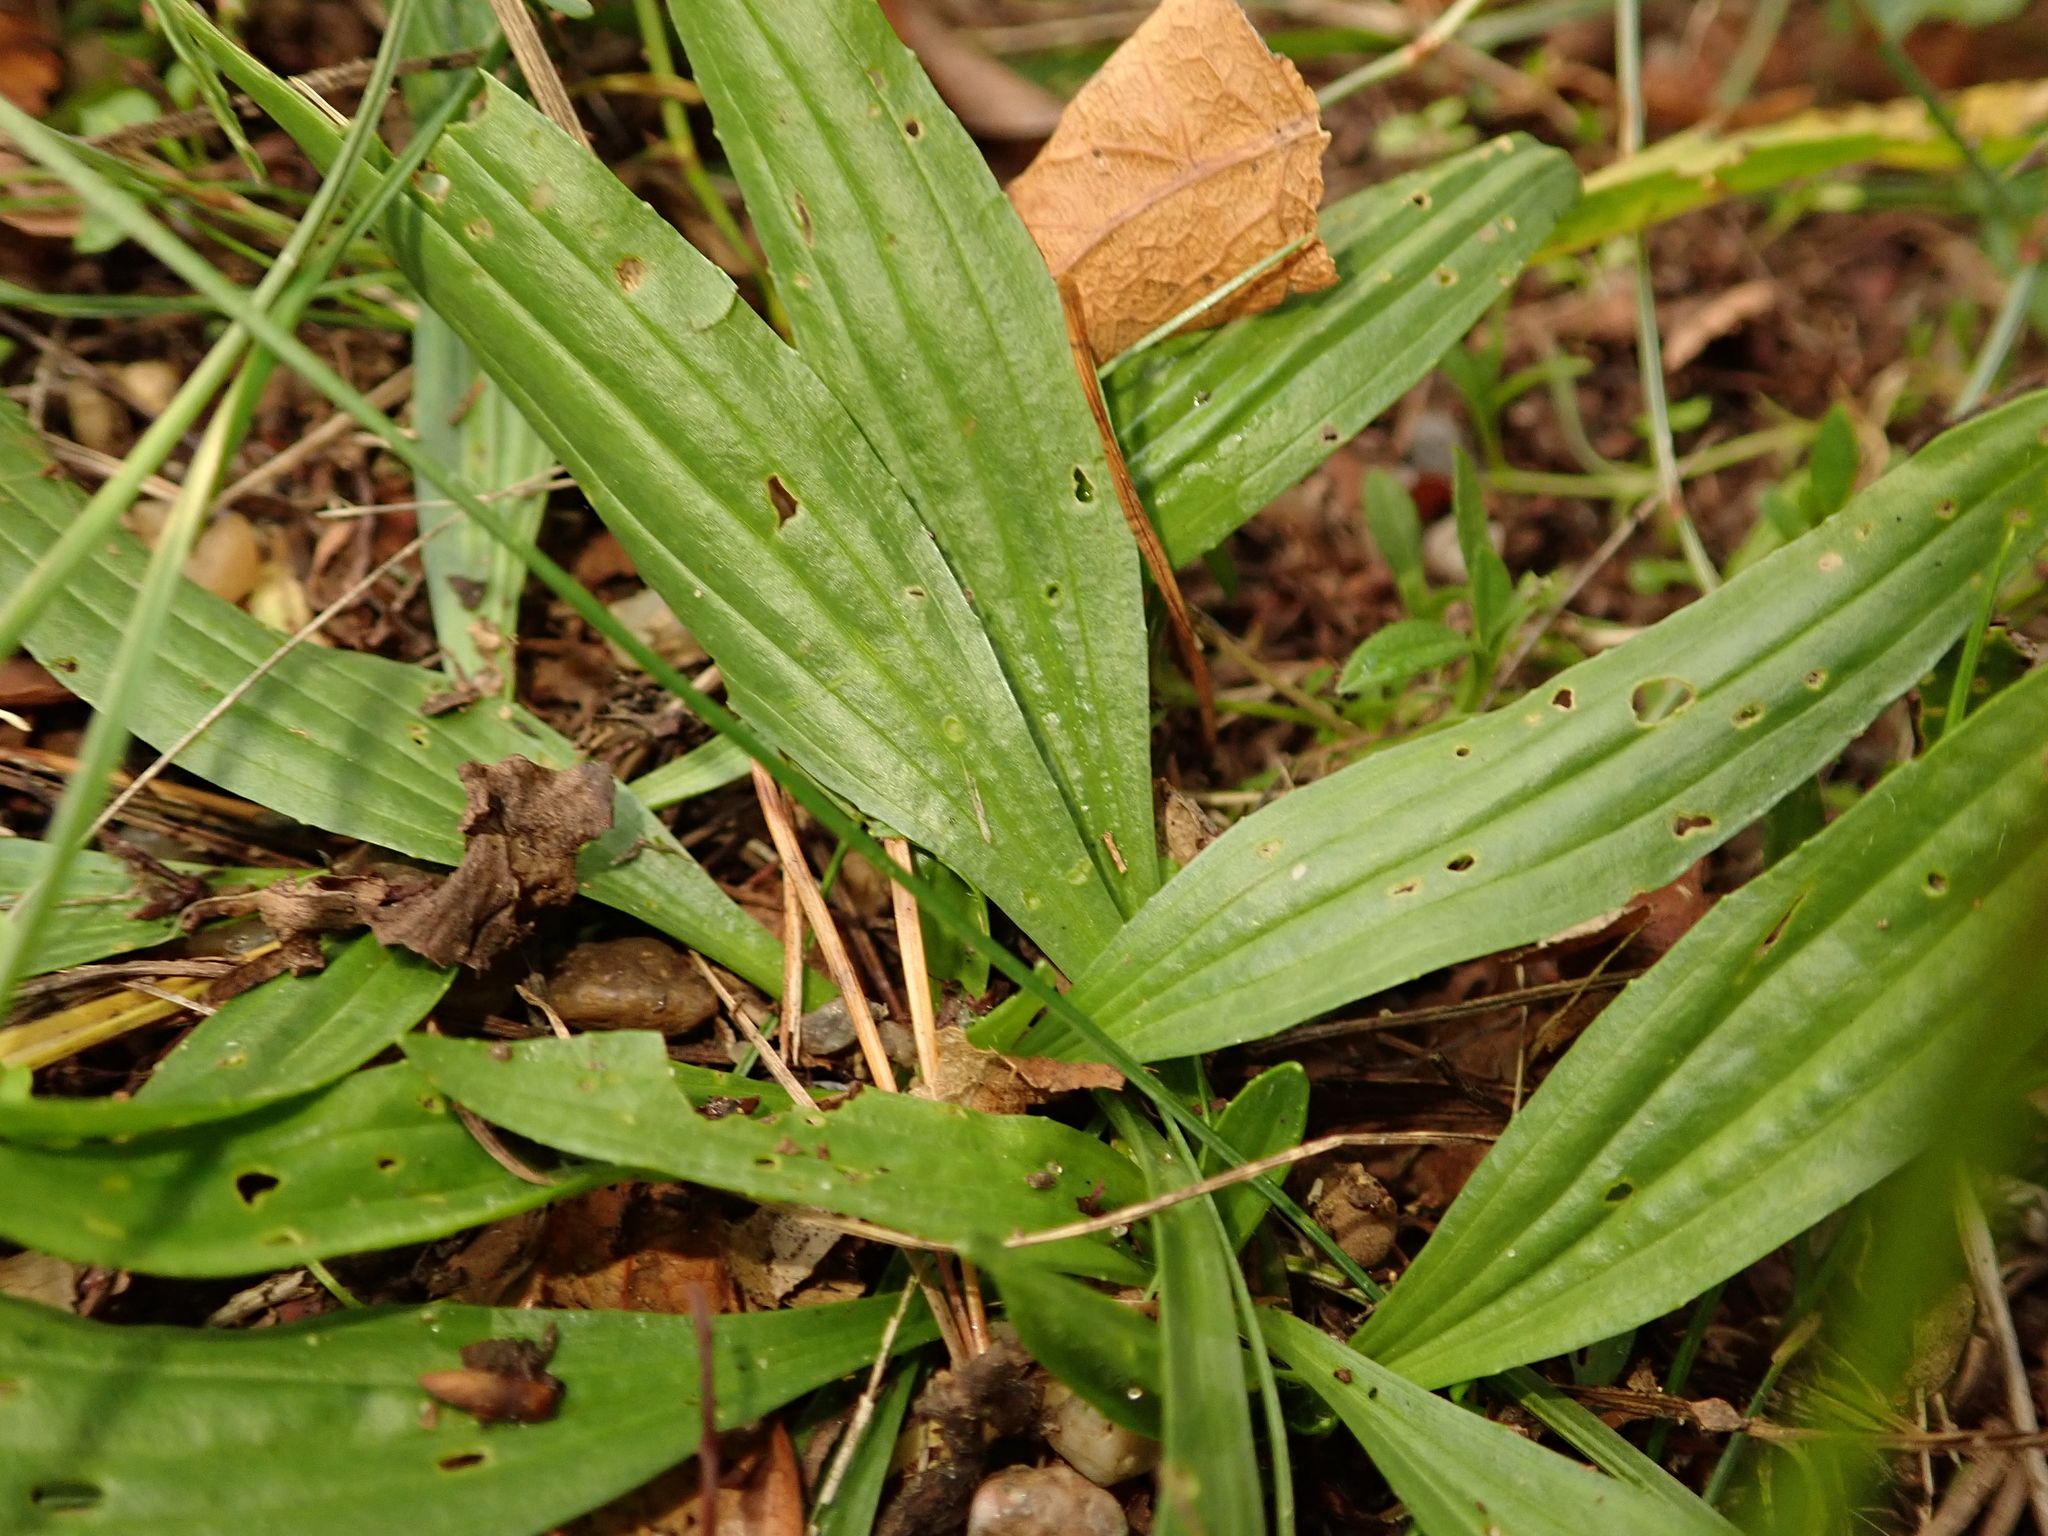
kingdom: Plantae
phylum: Tracheophyta
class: Magnoliopsida
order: Lamiales
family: Plantaginaceae
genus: Plantago
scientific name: Plantago lanceolata
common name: Ribwort plantain
